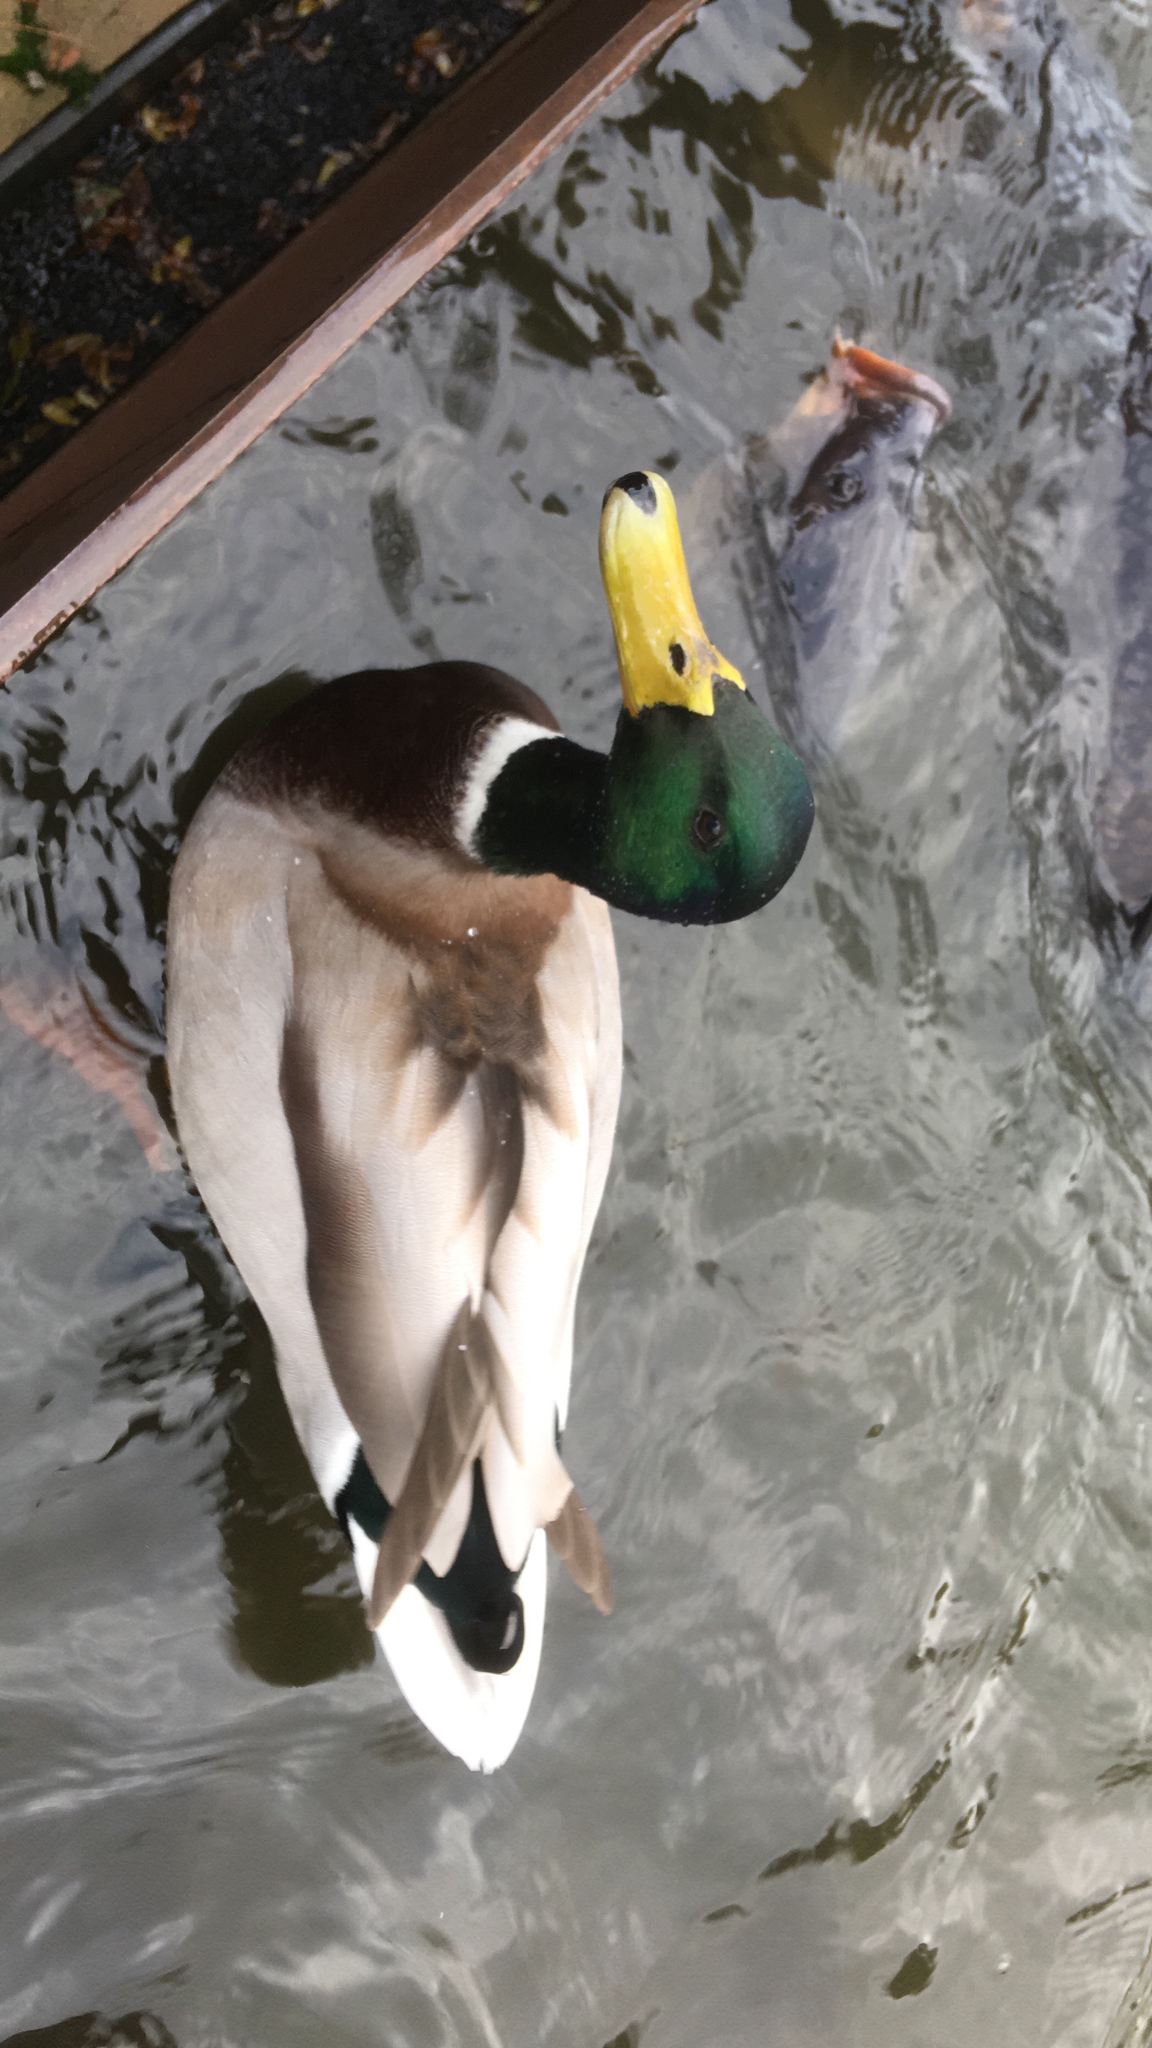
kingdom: Animalia
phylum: Chordata
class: Aves
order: Anseriformes
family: Anatidae
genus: Anas
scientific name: Anas platyrhynchos
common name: Mallard
